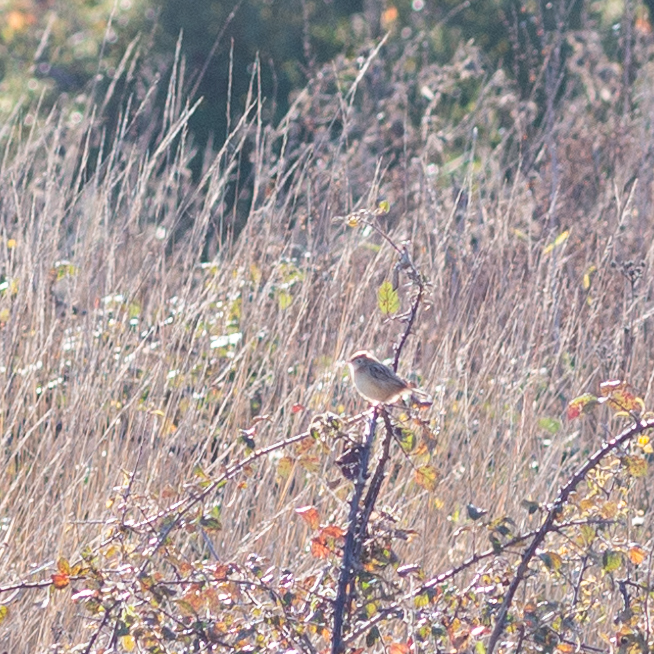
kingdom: Animalia
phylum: Chordata
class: Aves
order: Passeriformes
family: Cisticolidae
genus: Cisticola
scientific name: Cisticola juncidis
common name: Zitting cisticola
